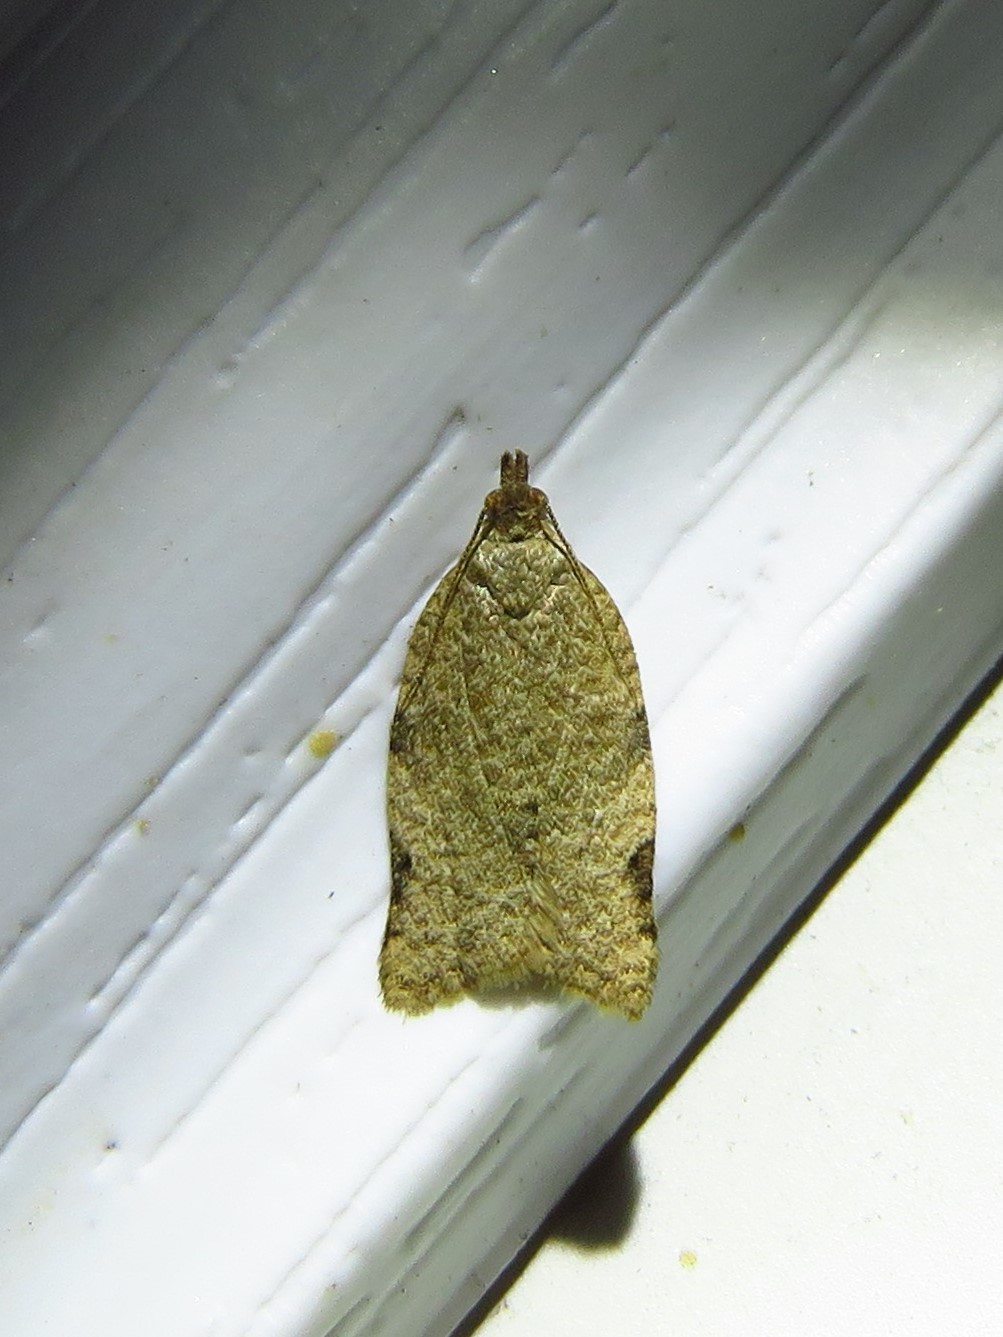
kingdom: Animalia
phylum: Arthropoda
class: Insecta
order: Lepidoptera
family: Tortricidae
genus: Clepsis
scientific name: Clepsis virescana
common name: Greenish apple moth
